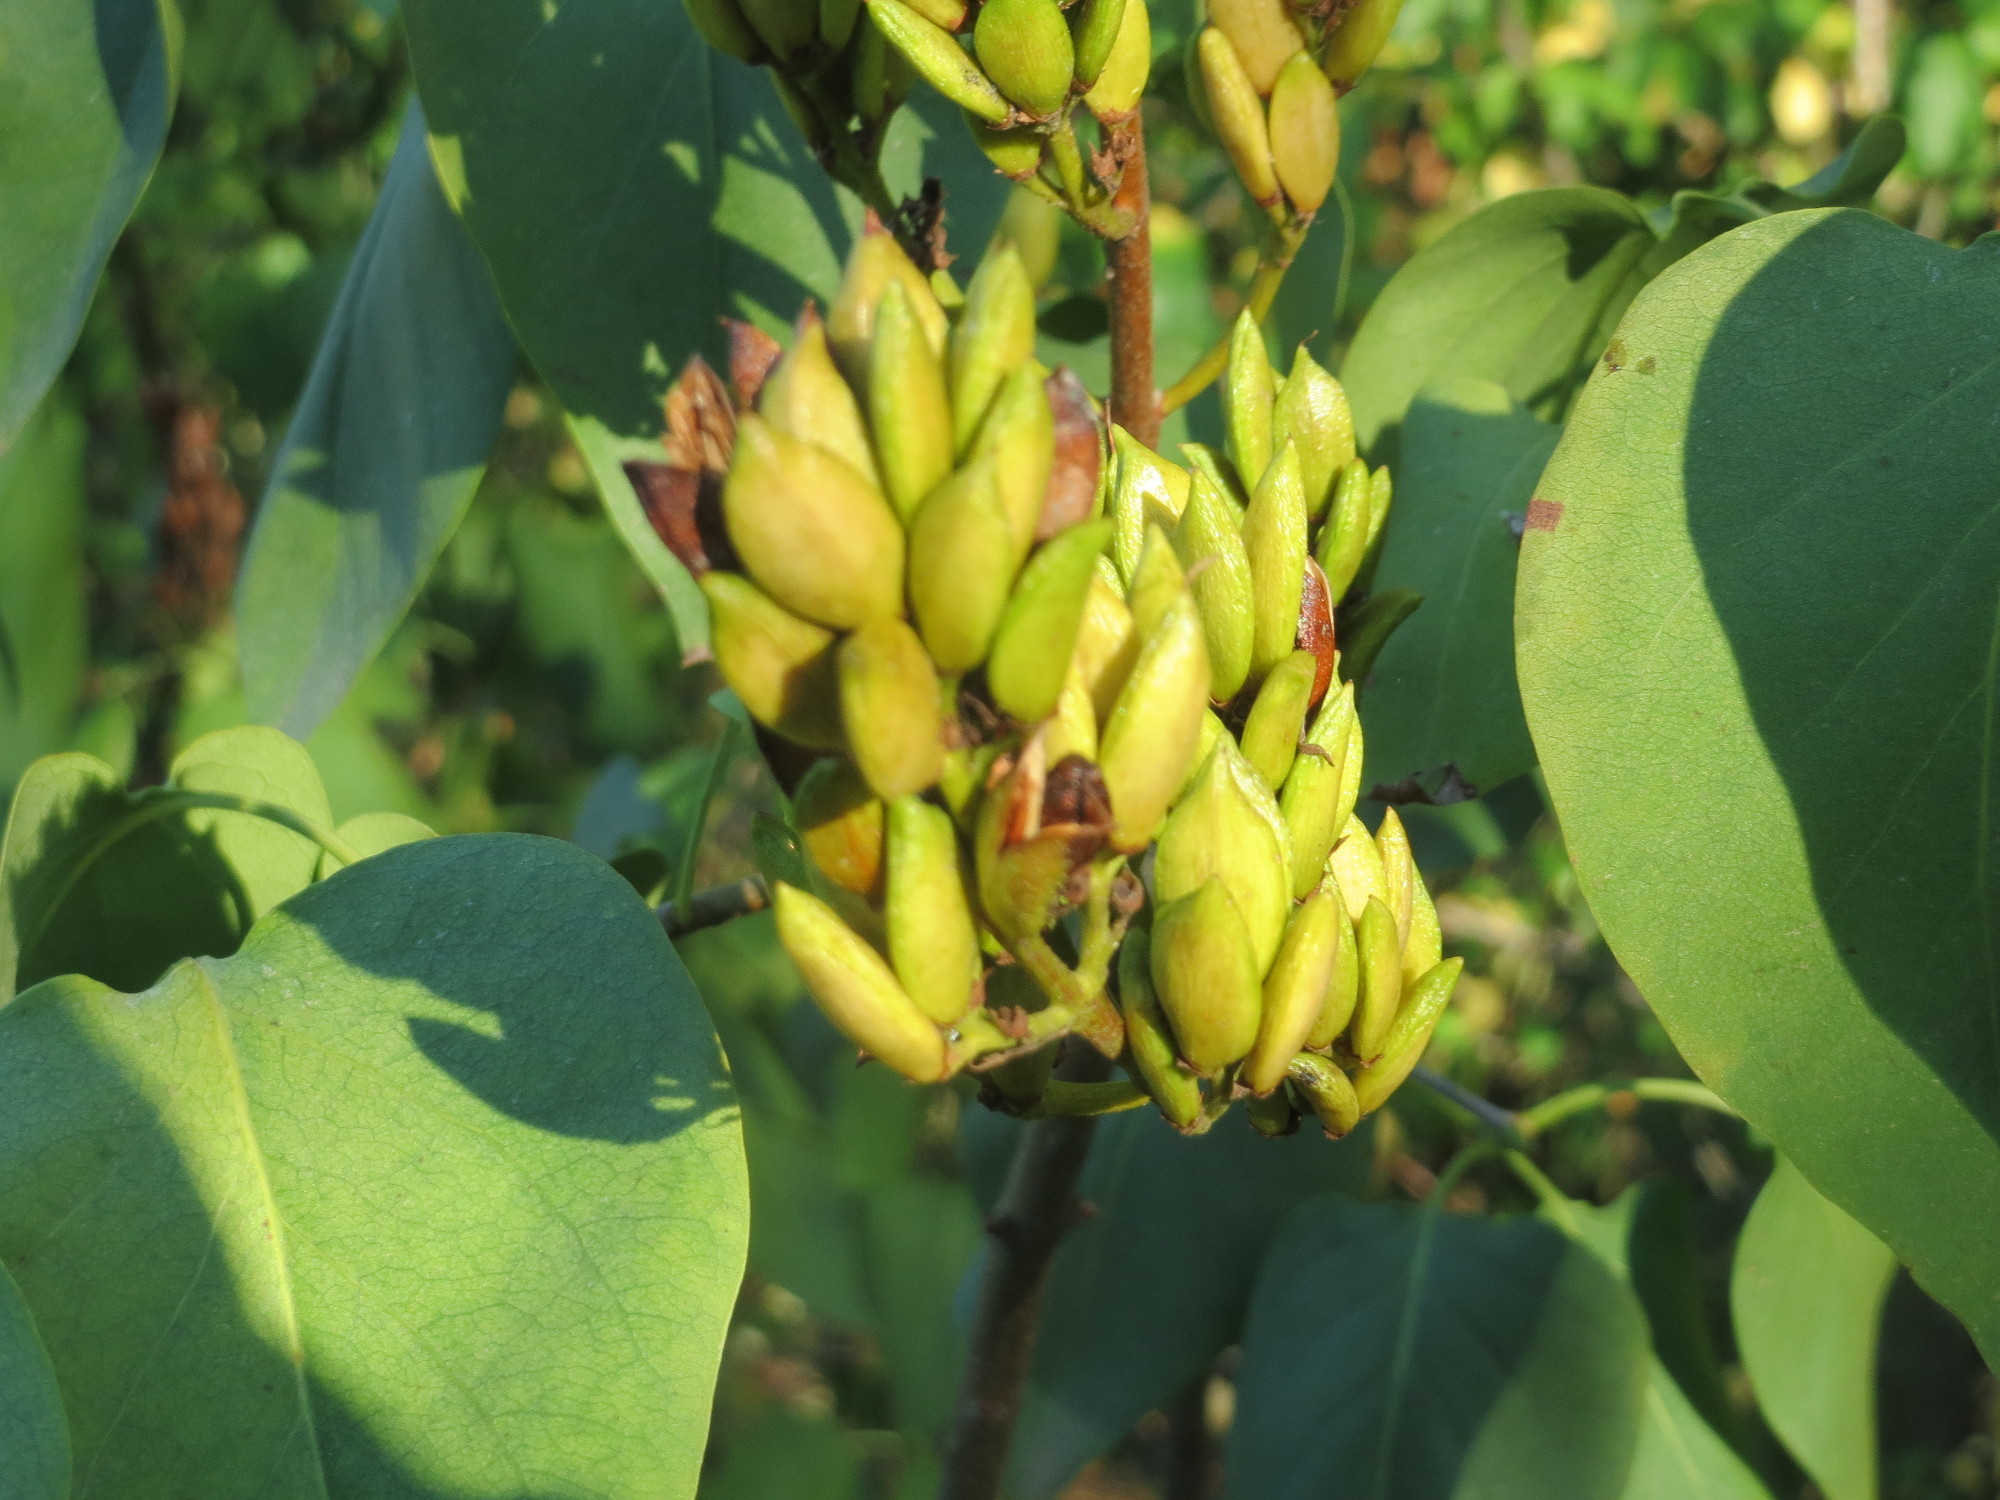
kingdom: Plantae
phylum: Tracheophyta
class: Magnoliopsida
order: Lamiales
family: Oleaceae
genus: Syringa
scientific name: Syringa vulgaris
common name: Common lilac
